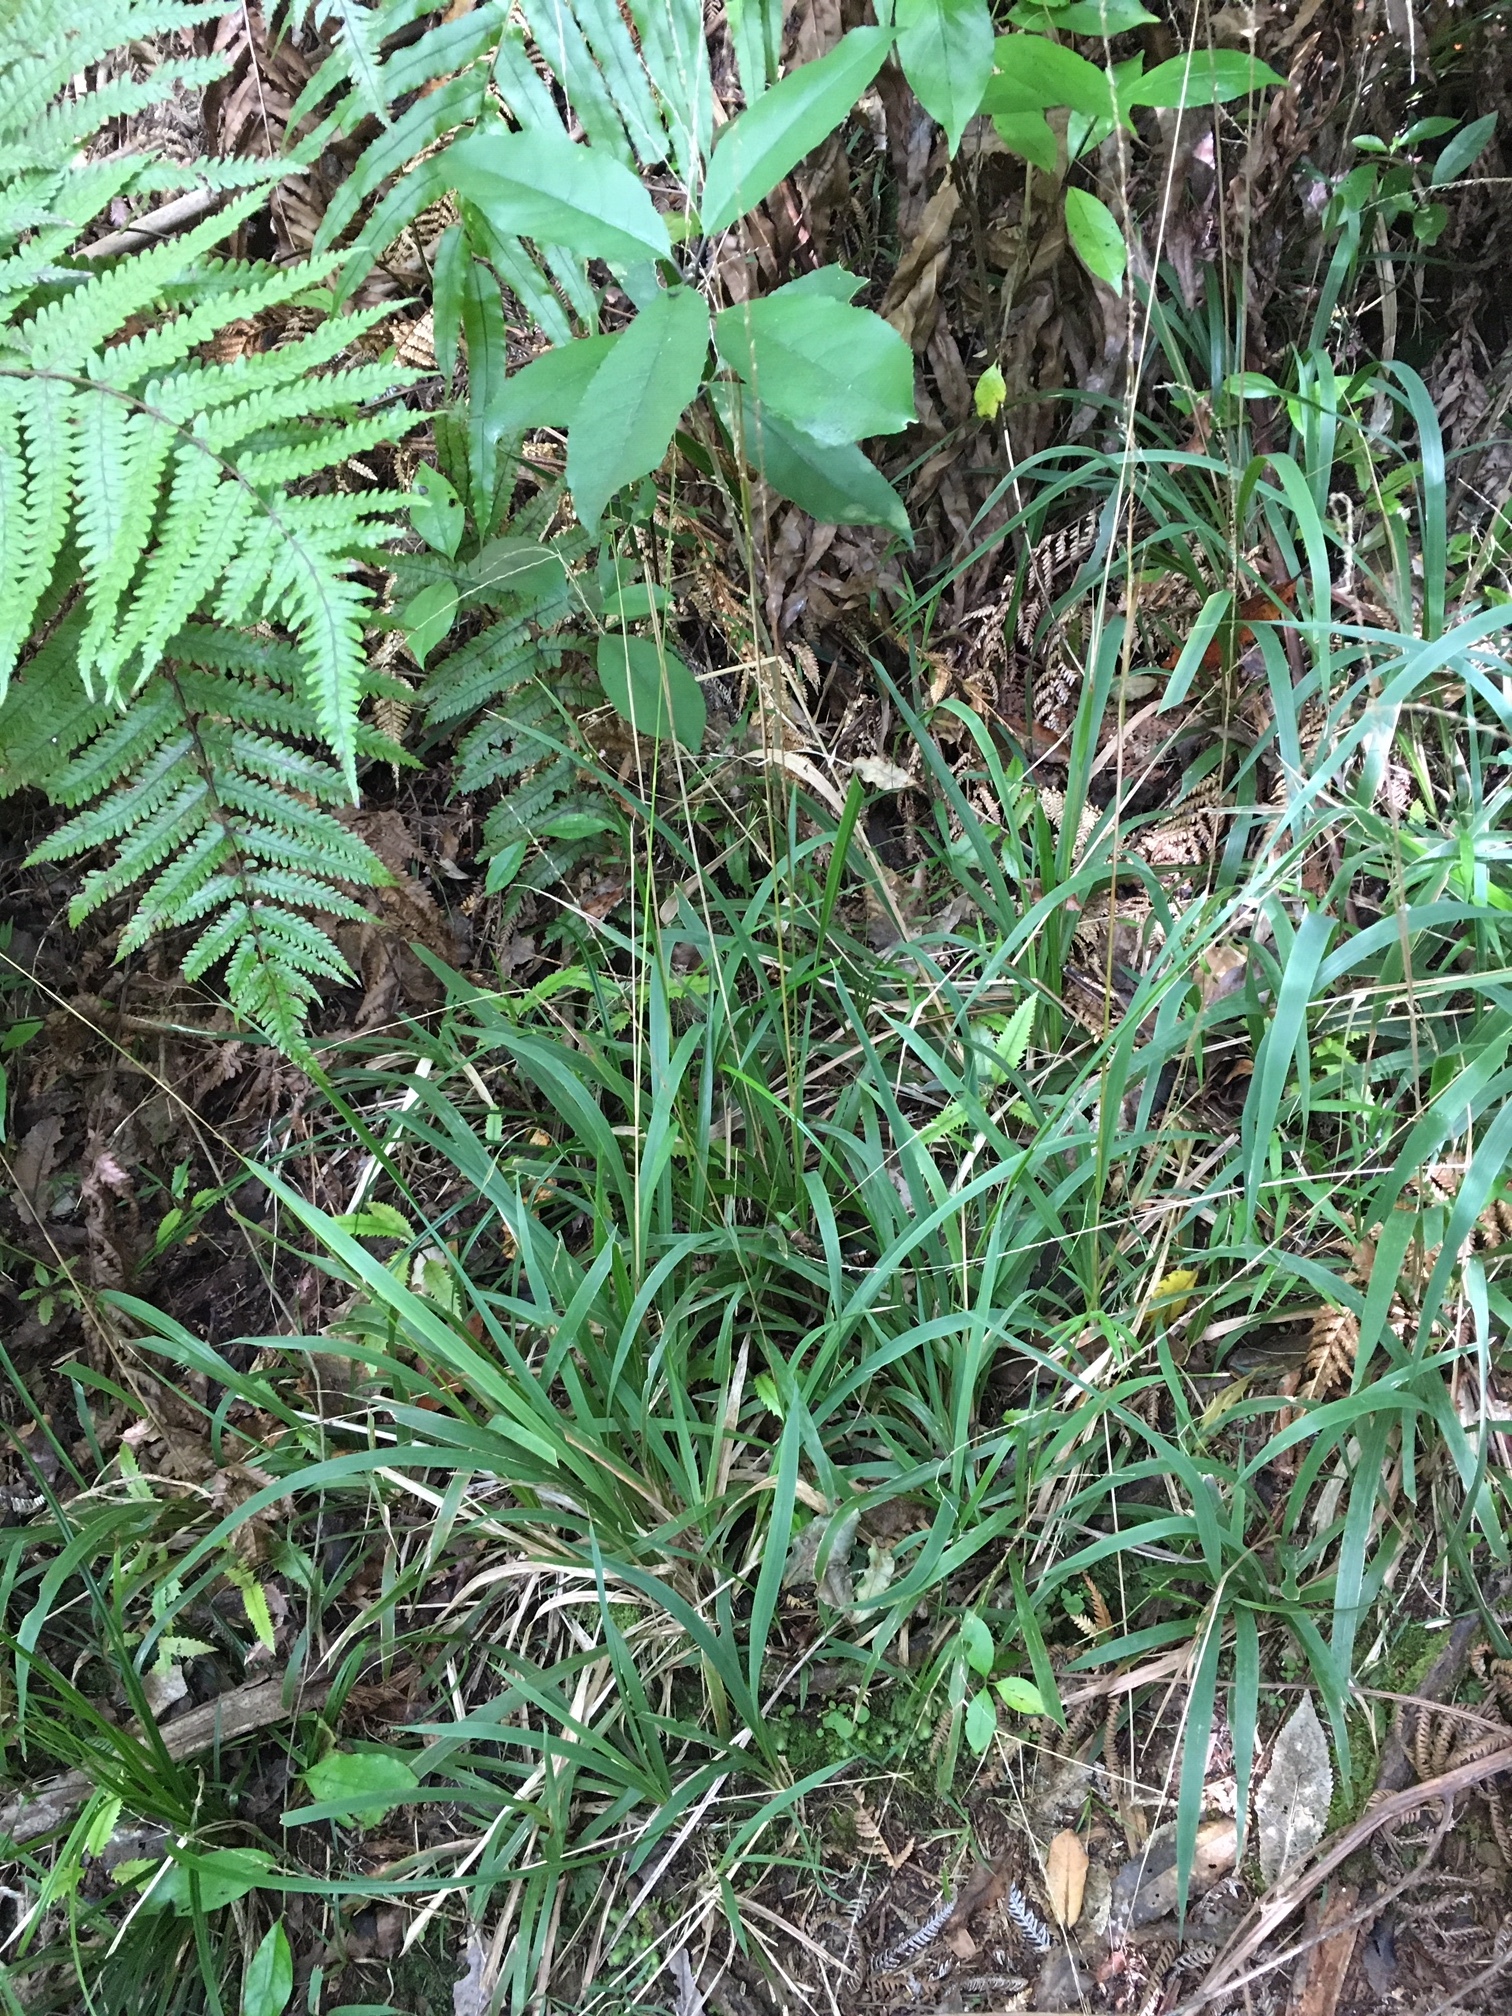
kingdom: Plantae
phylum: Tracheophyta
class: Liliopsida
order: Poales
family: Poaceae
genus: Ehrharta
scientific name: Ehrharta diplax
